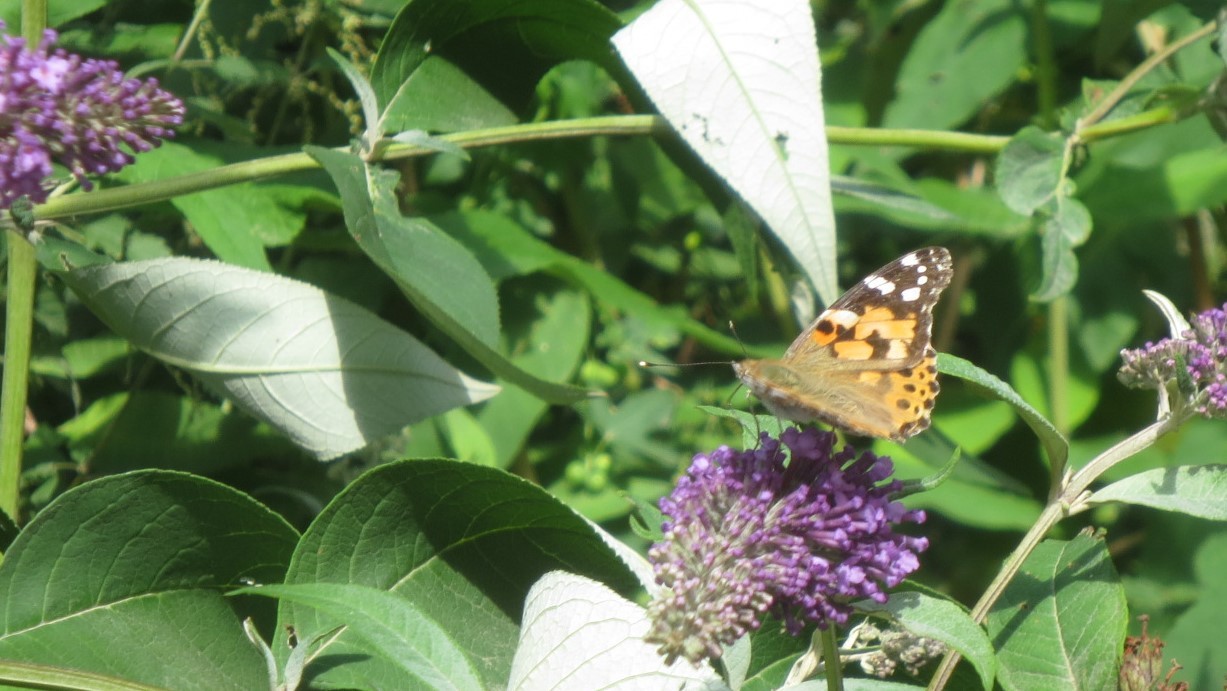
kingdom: Animalia
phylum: Arthropoda
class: Insecta
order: Lepidoptera
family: Nymphalidae
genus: Vanessa
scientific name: Vanessa cardui
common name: Painted lady
